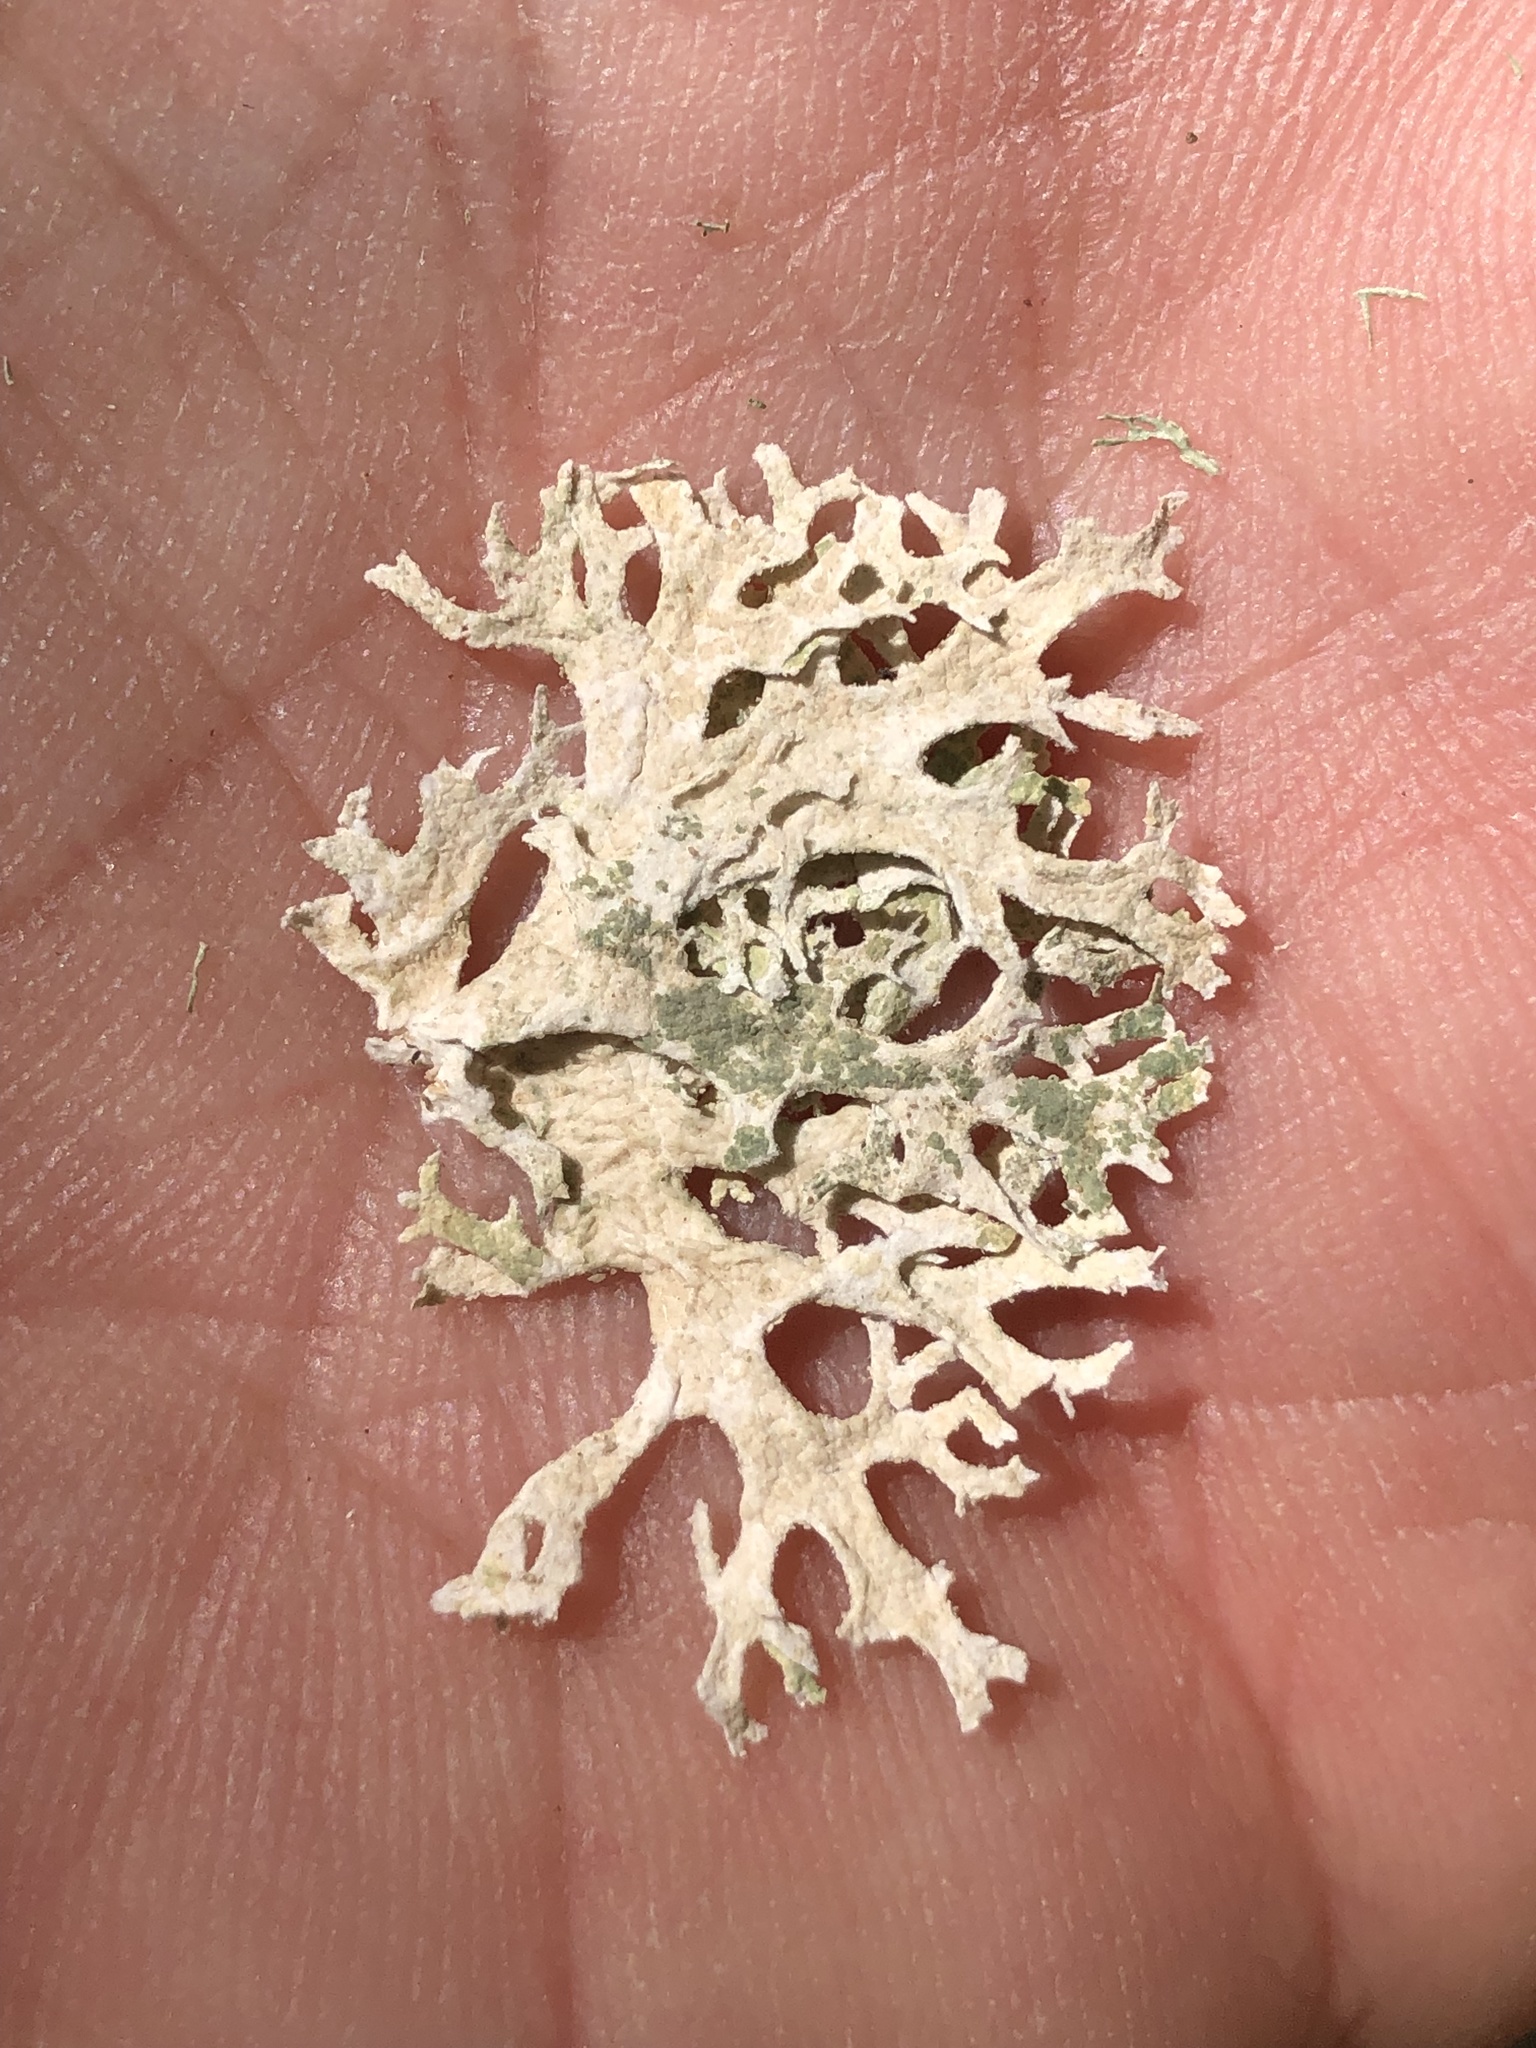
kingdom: Fungi
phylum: Ascomycota
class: Lecanoromycetes
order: Lecanorales
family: Parmeliaceae
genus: Evernia
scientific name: Evernia prunastri
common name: Oak moss
